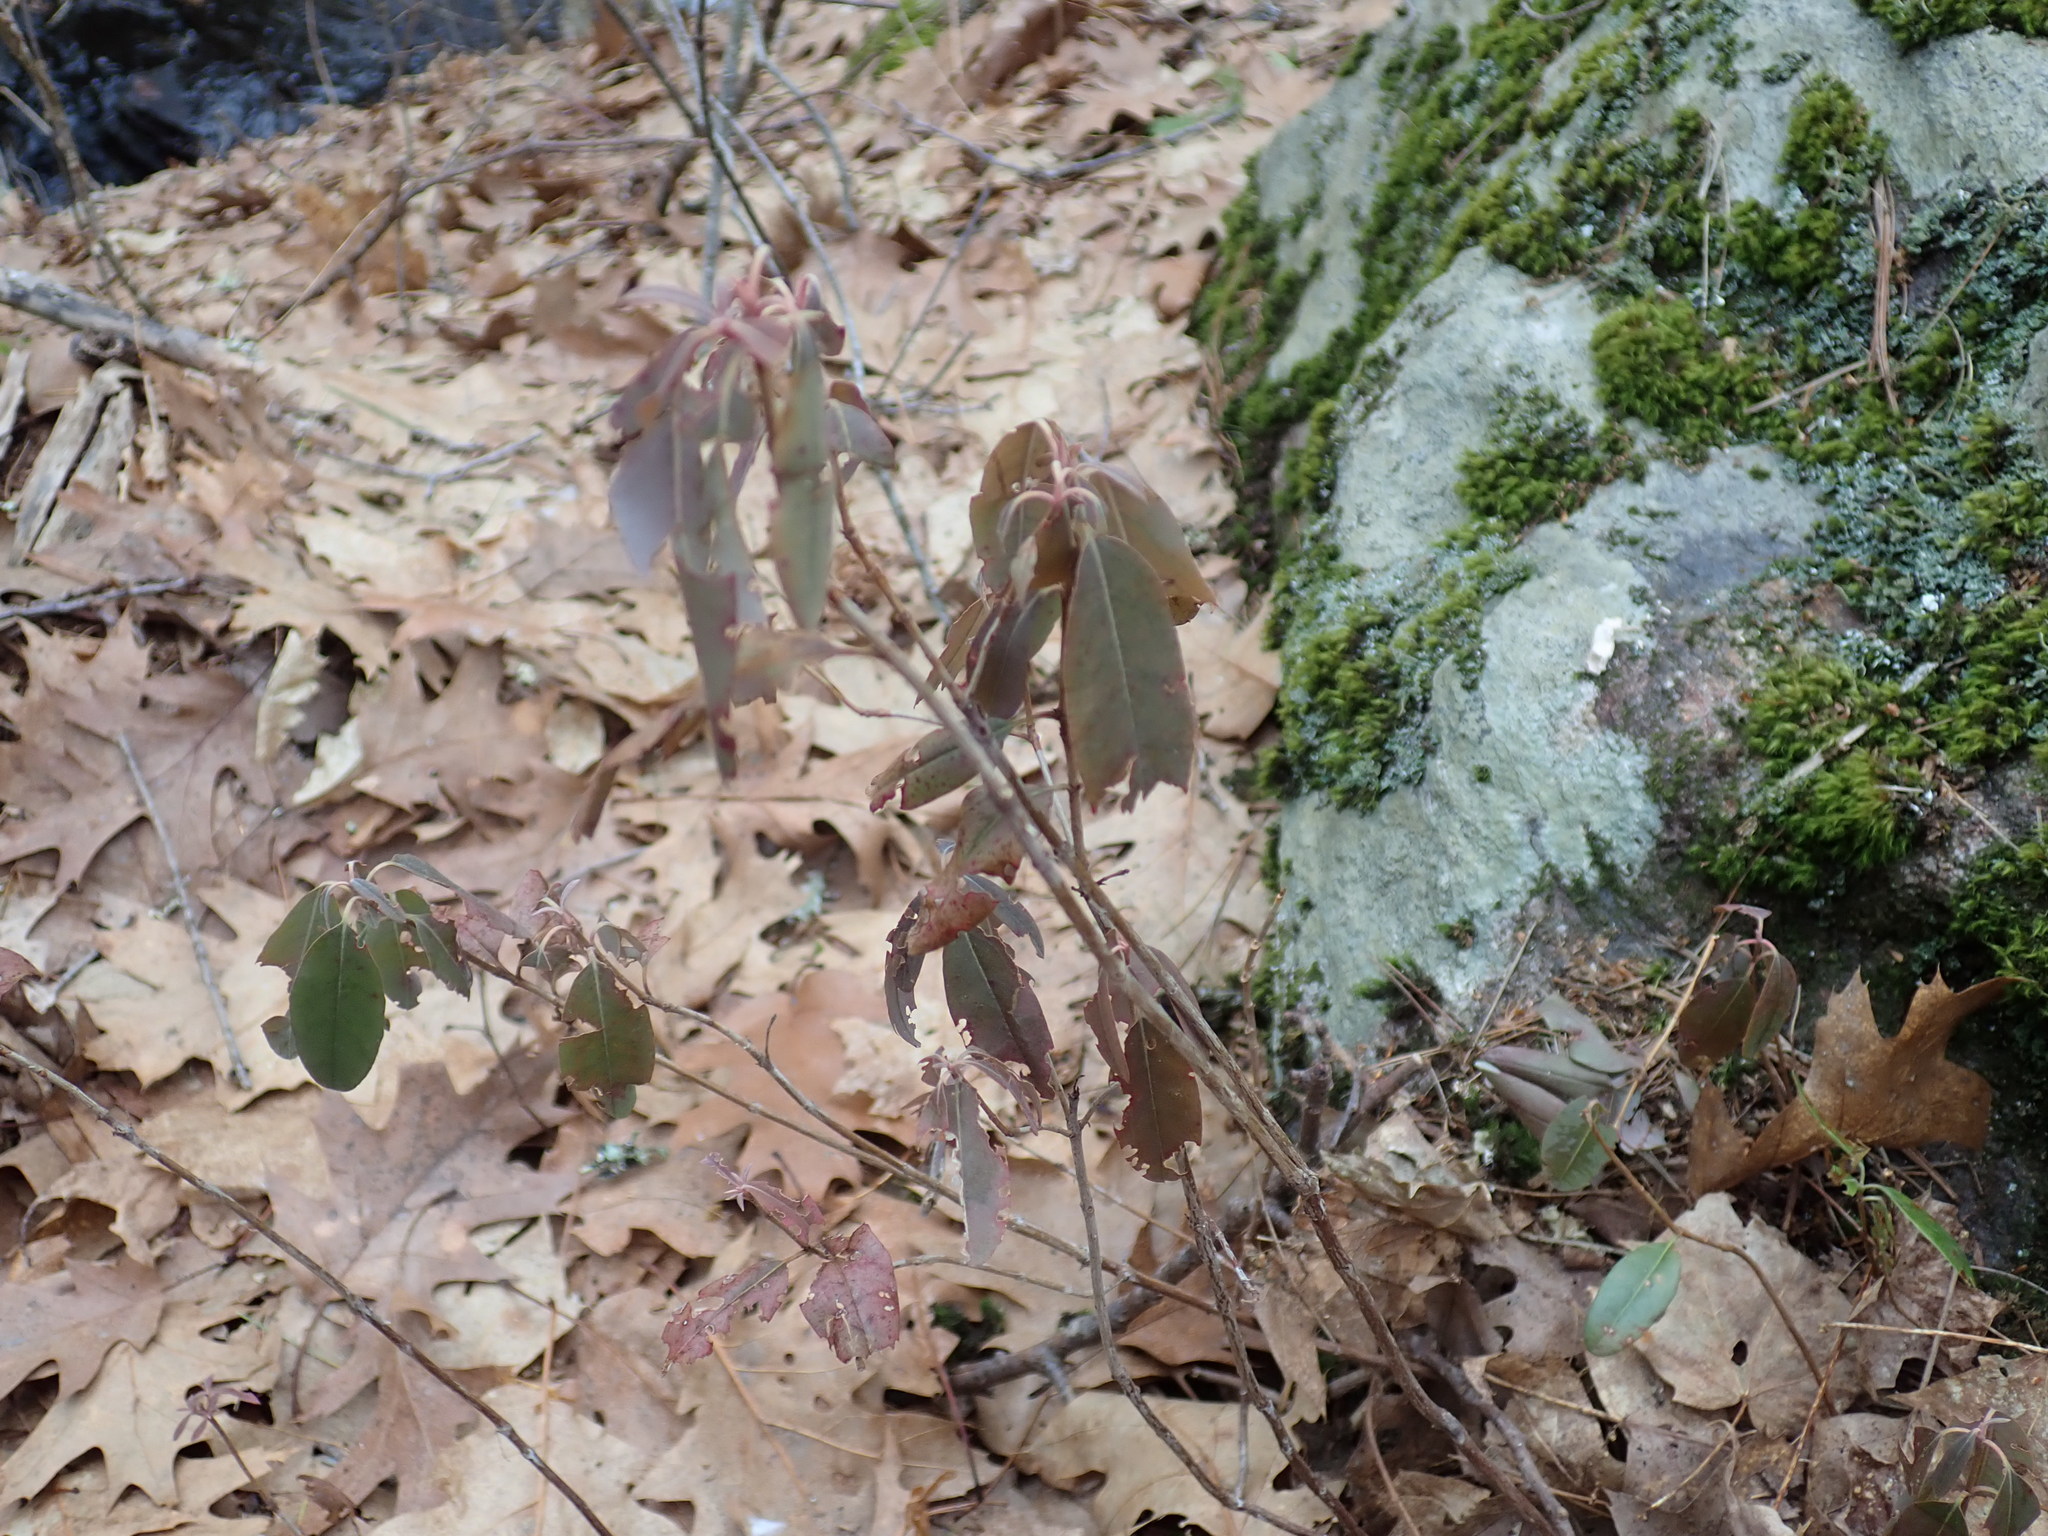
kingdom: Plantae
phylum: Tracheophyta
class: Magnoliopsida
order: Ericales
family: Ericaceae
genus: Kalmia
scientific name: Kalmia angustifolia
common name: Sheep-laurel
